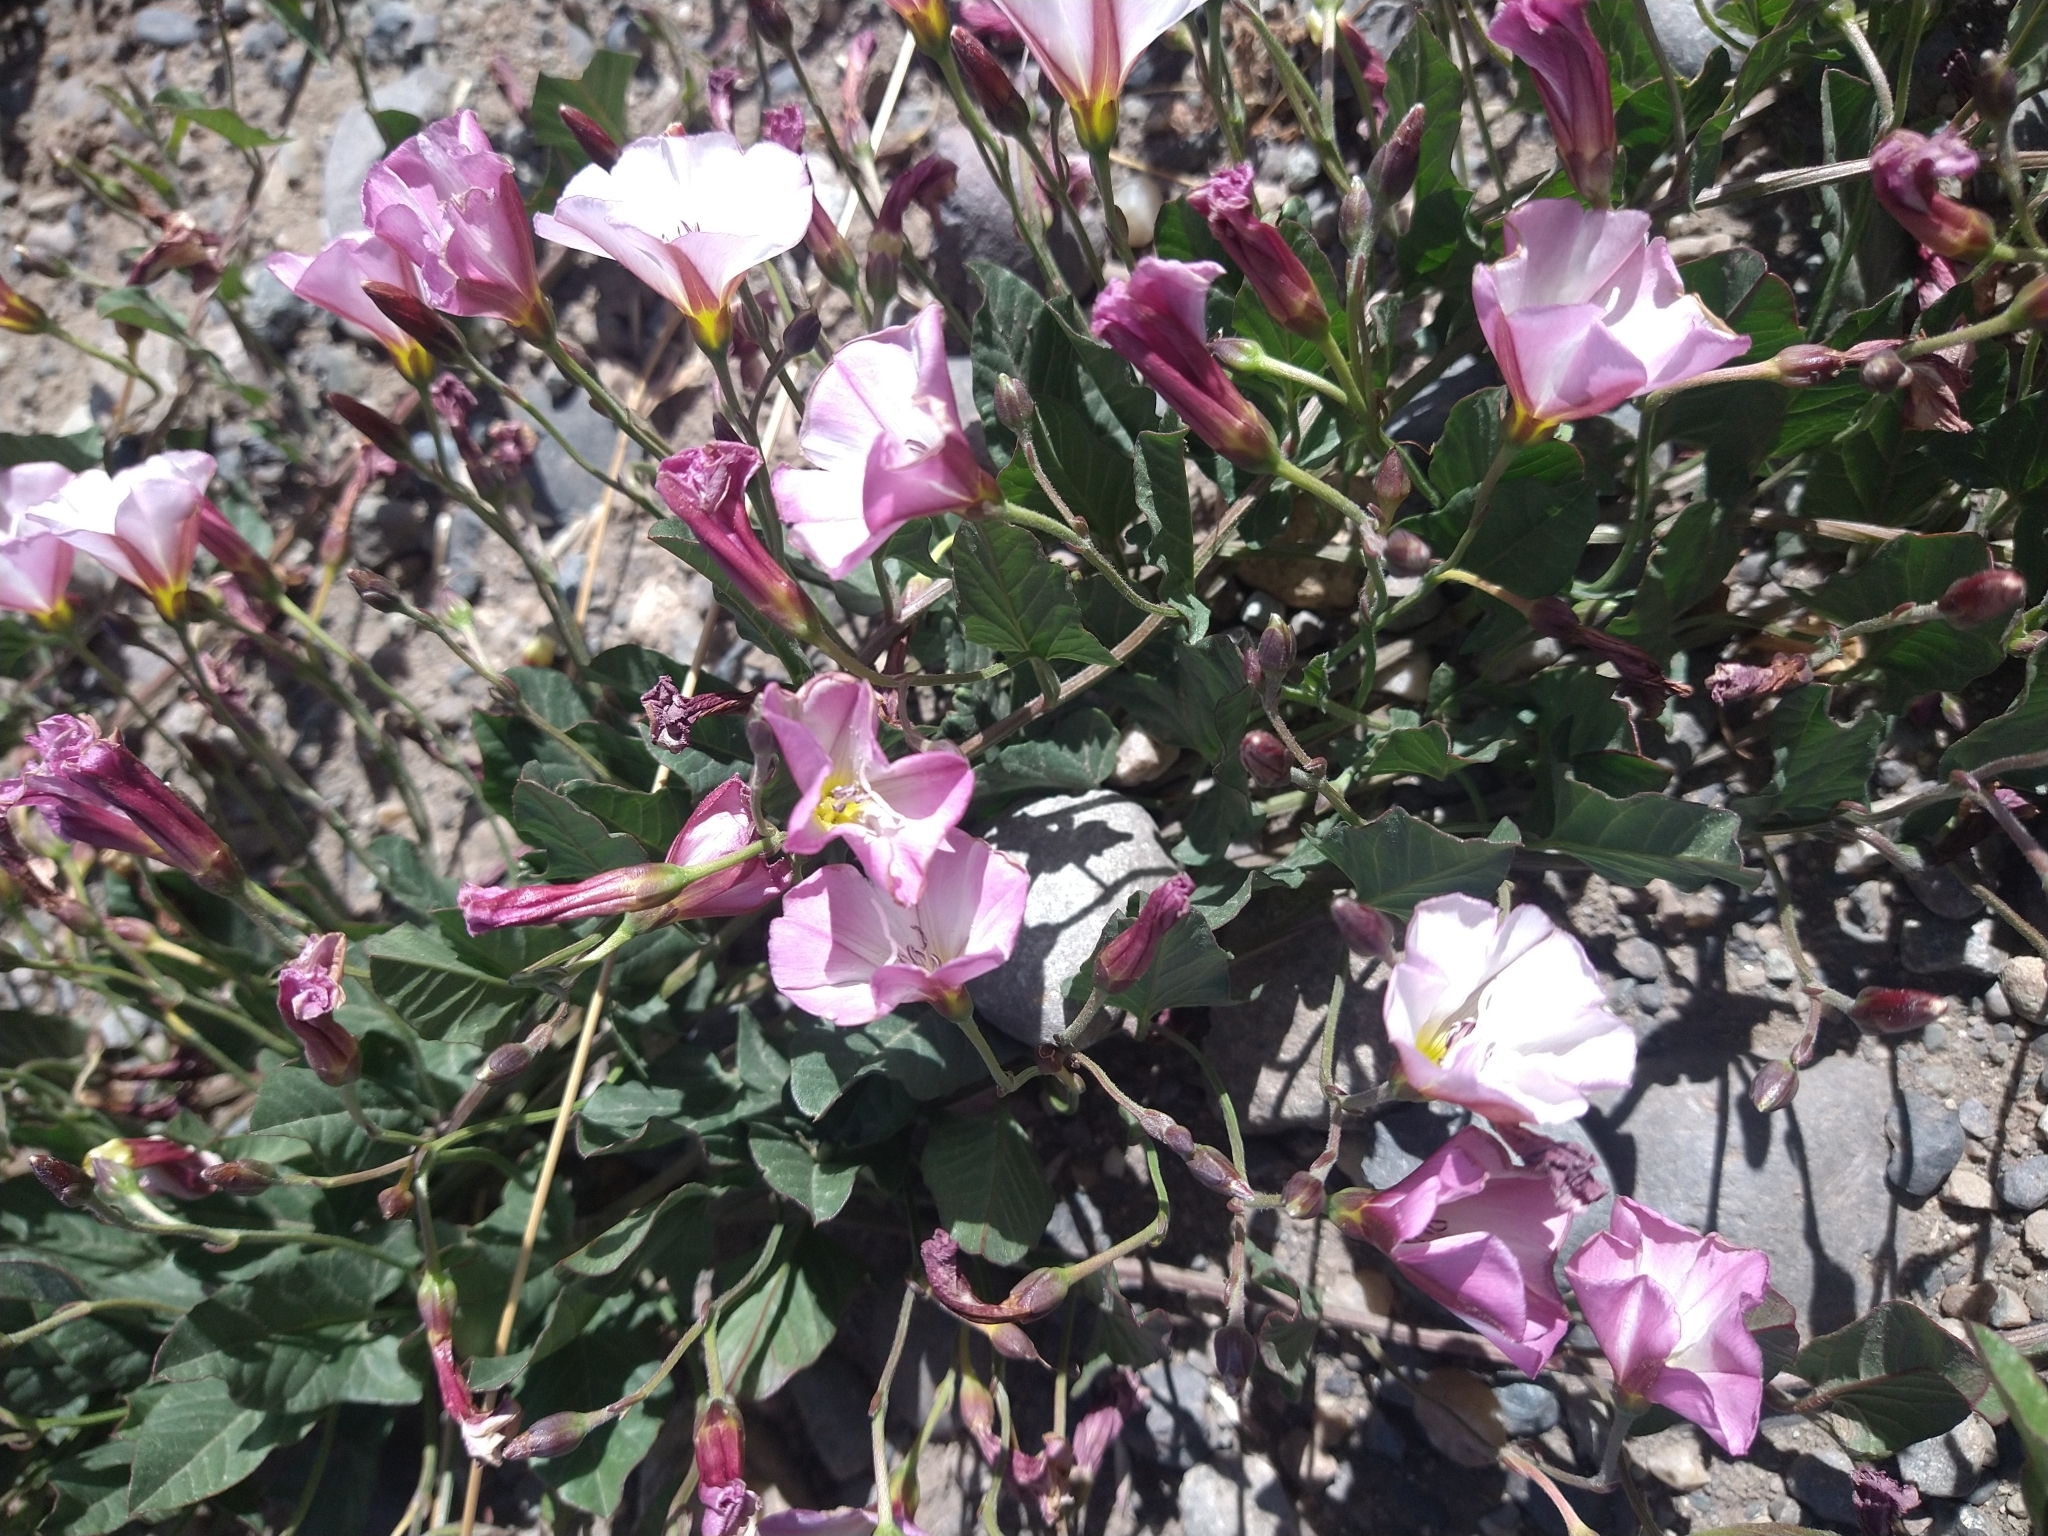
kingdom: Plantae
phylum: Tracheophyta
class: Magnoliopsida
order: Solanales
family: Convolvulaceae
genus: Convolvulus
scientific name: Convolvulus arvensis
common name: Field bindweed
